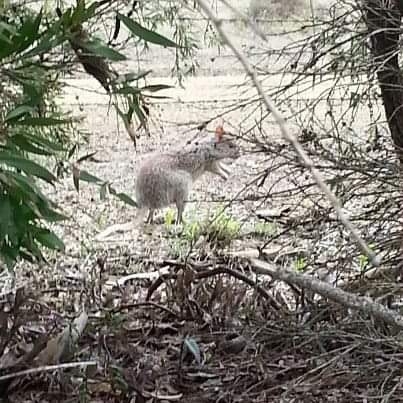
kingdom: Animalia
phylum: Chordata
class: Mammalia
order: Diprotodontia
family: Potoroidae
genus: Aepyprymnus
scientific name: Aepyprymnus rufescens
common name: Rufous rat-kangaroo
